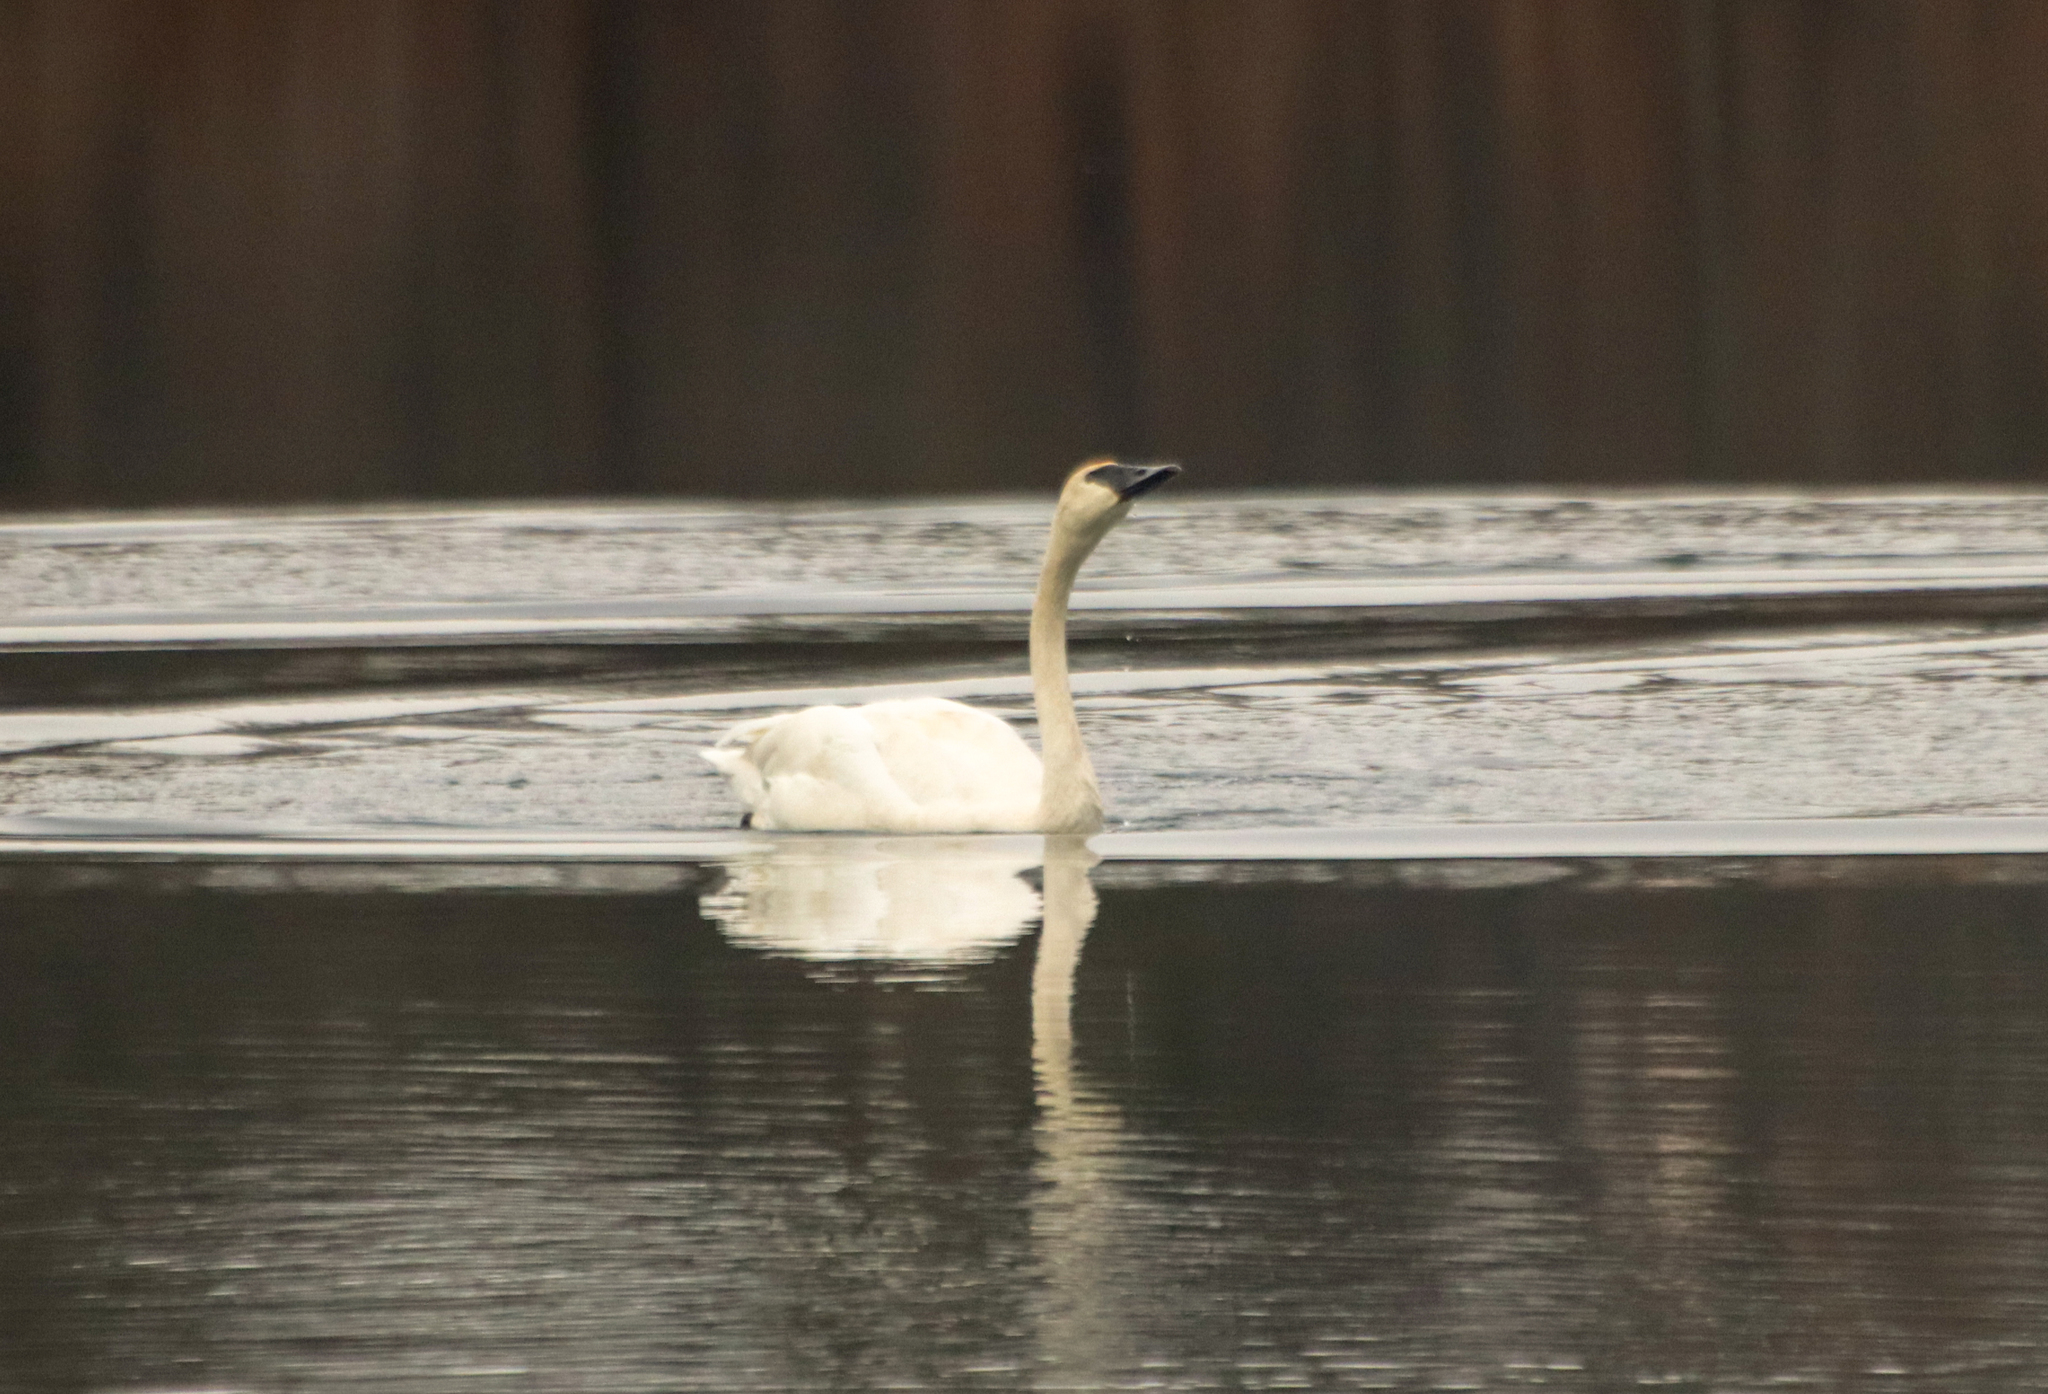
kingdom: Animalia
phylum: Chordata
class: Aves
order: Anseriformes
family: Anatidae
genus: Cygnus
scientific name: Cygnus buccinator
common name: Trumpeter swan
